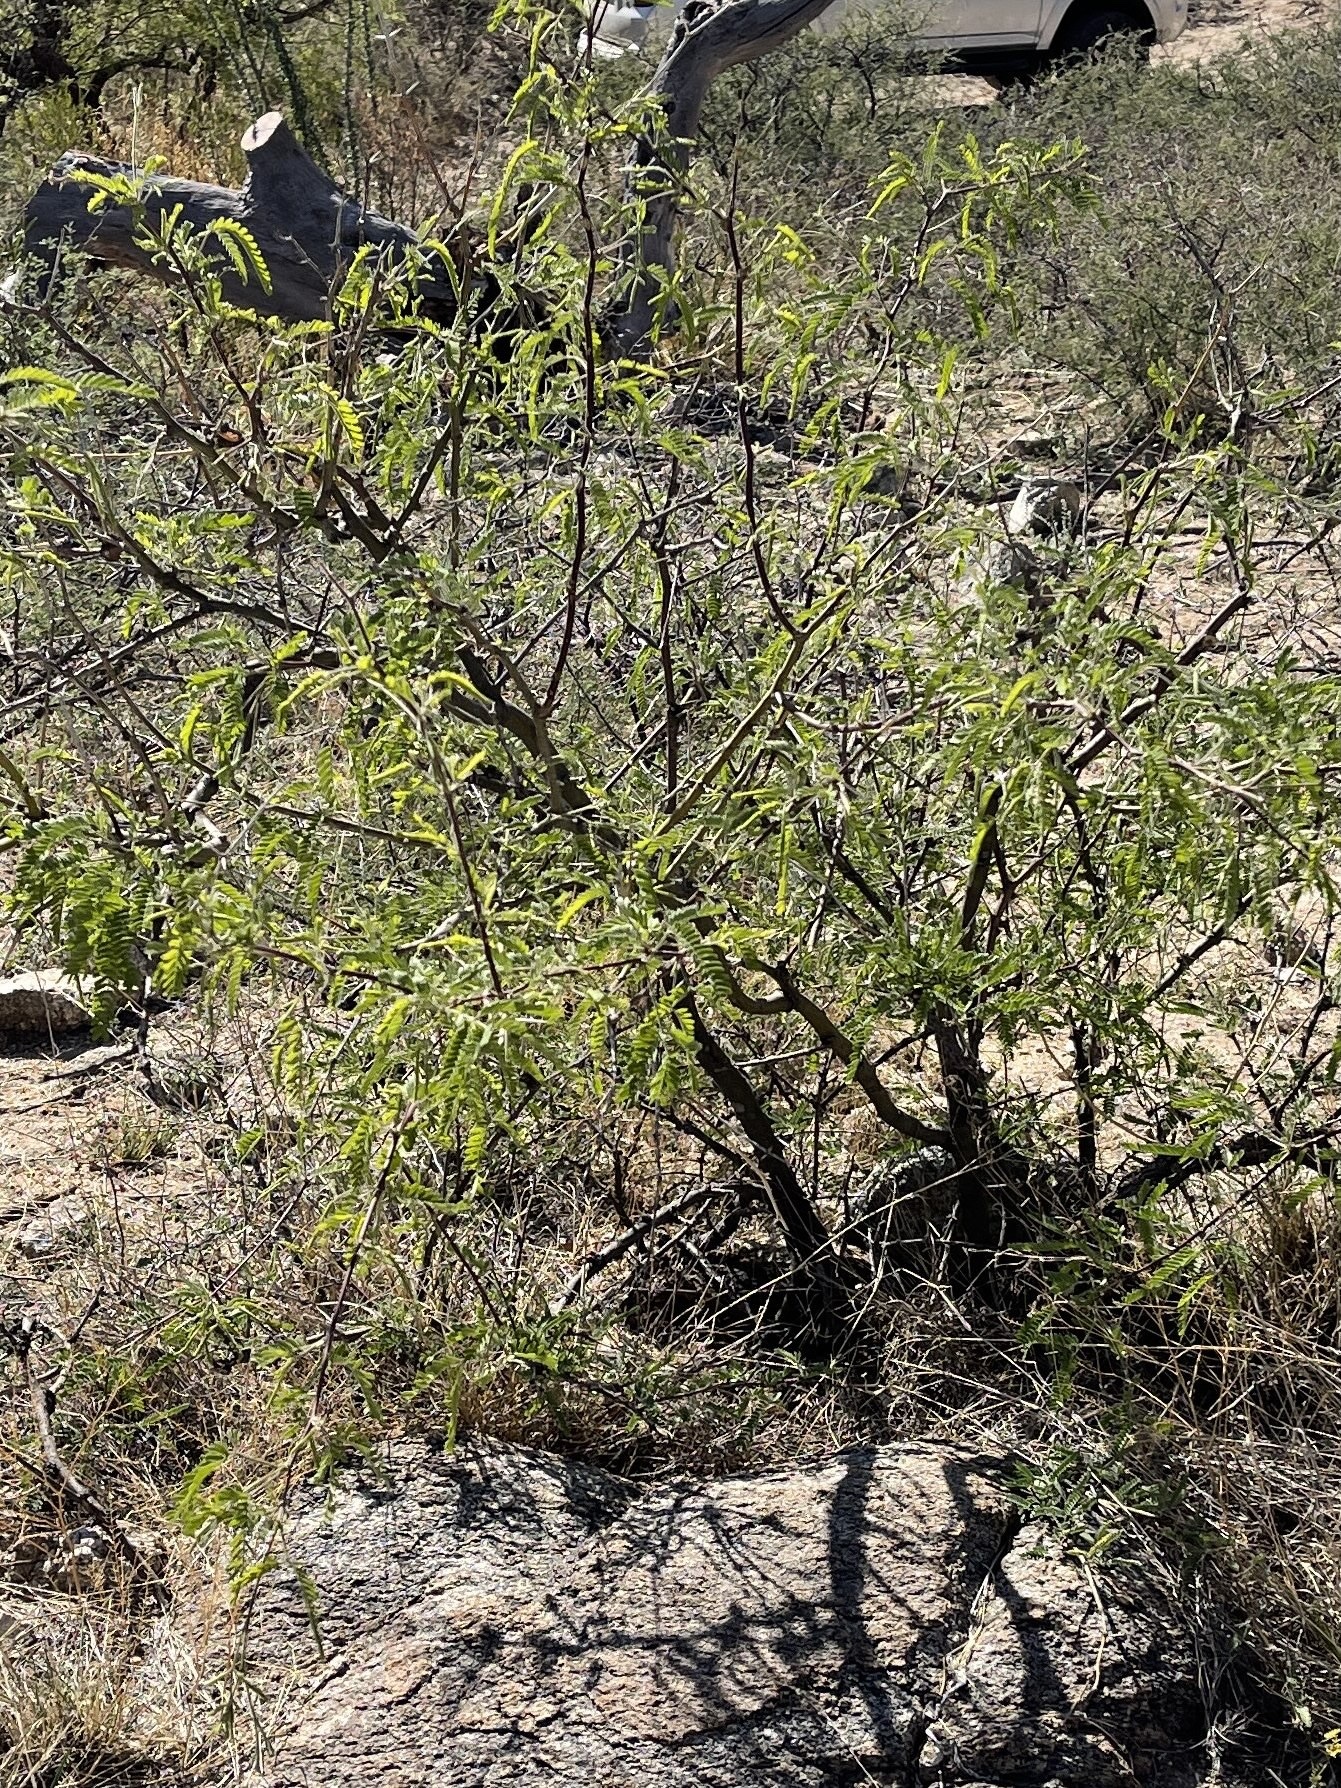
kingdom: Plantae
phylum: Tracheophyta
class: Magnoliopsida
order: Fabales
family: Fabaceae
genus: Prosopis
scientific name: Prosopis velutina
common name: Velvet mesquite
